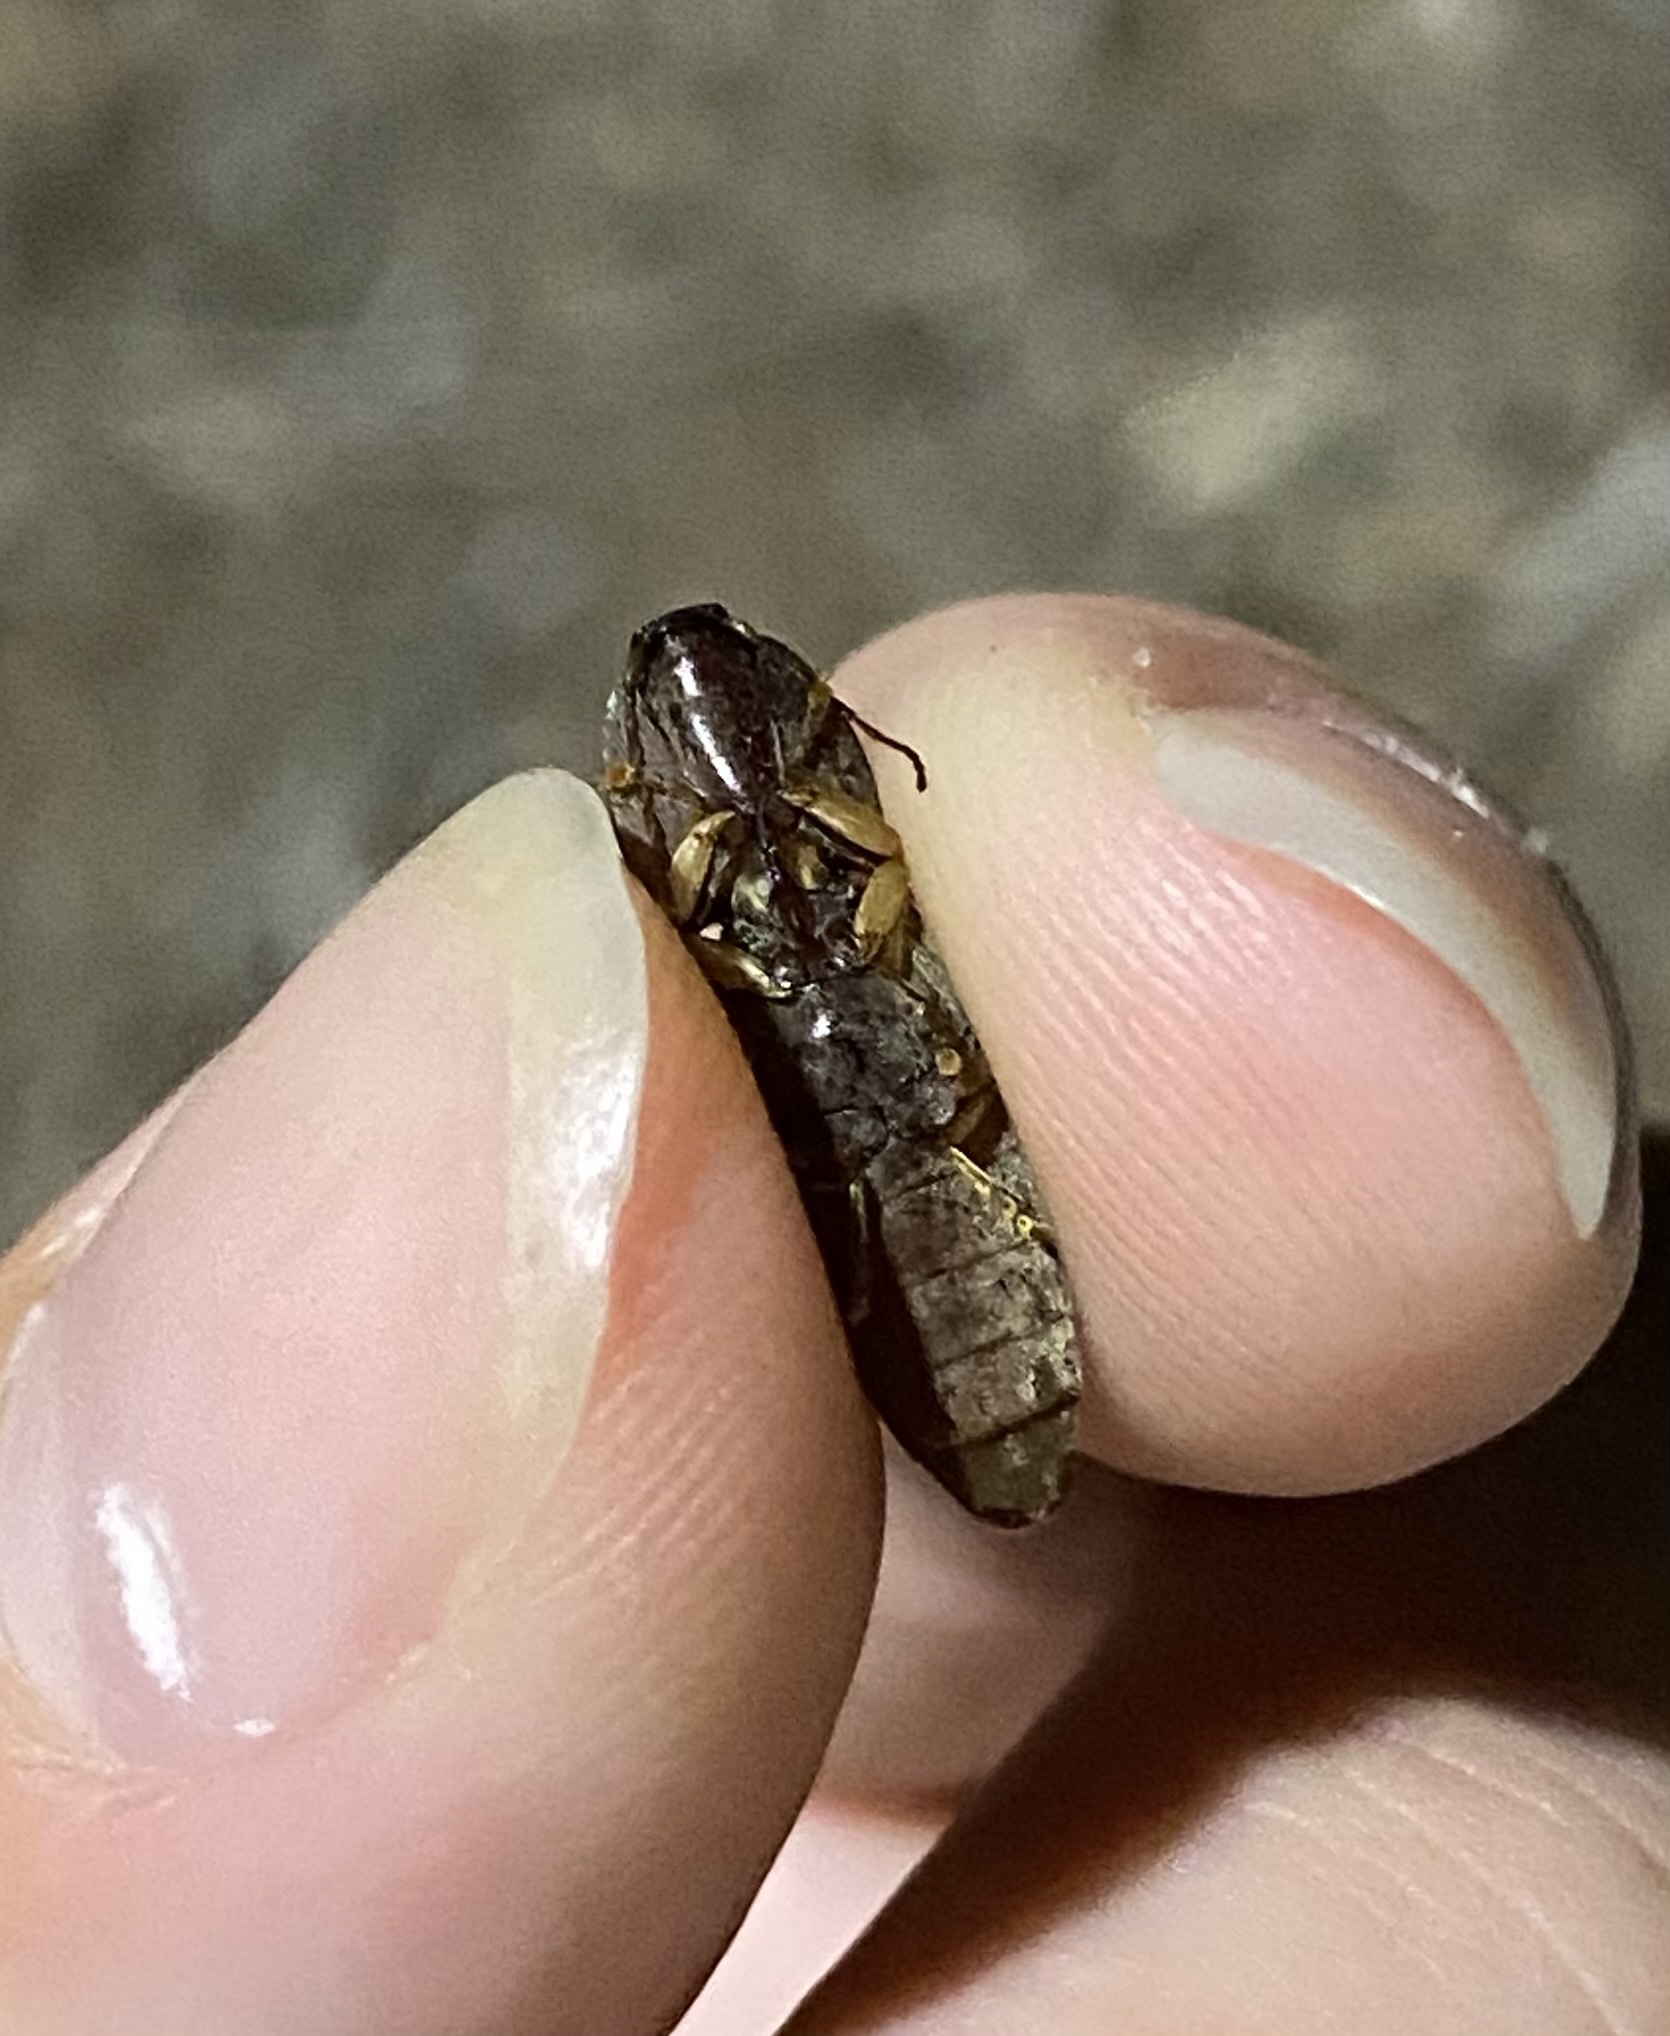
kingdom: Animalia
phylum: Arthropoda
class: Insecta
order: Coleoptera
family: Elateridae
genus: Monocrepidius
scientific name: Monocrepidius lividus
